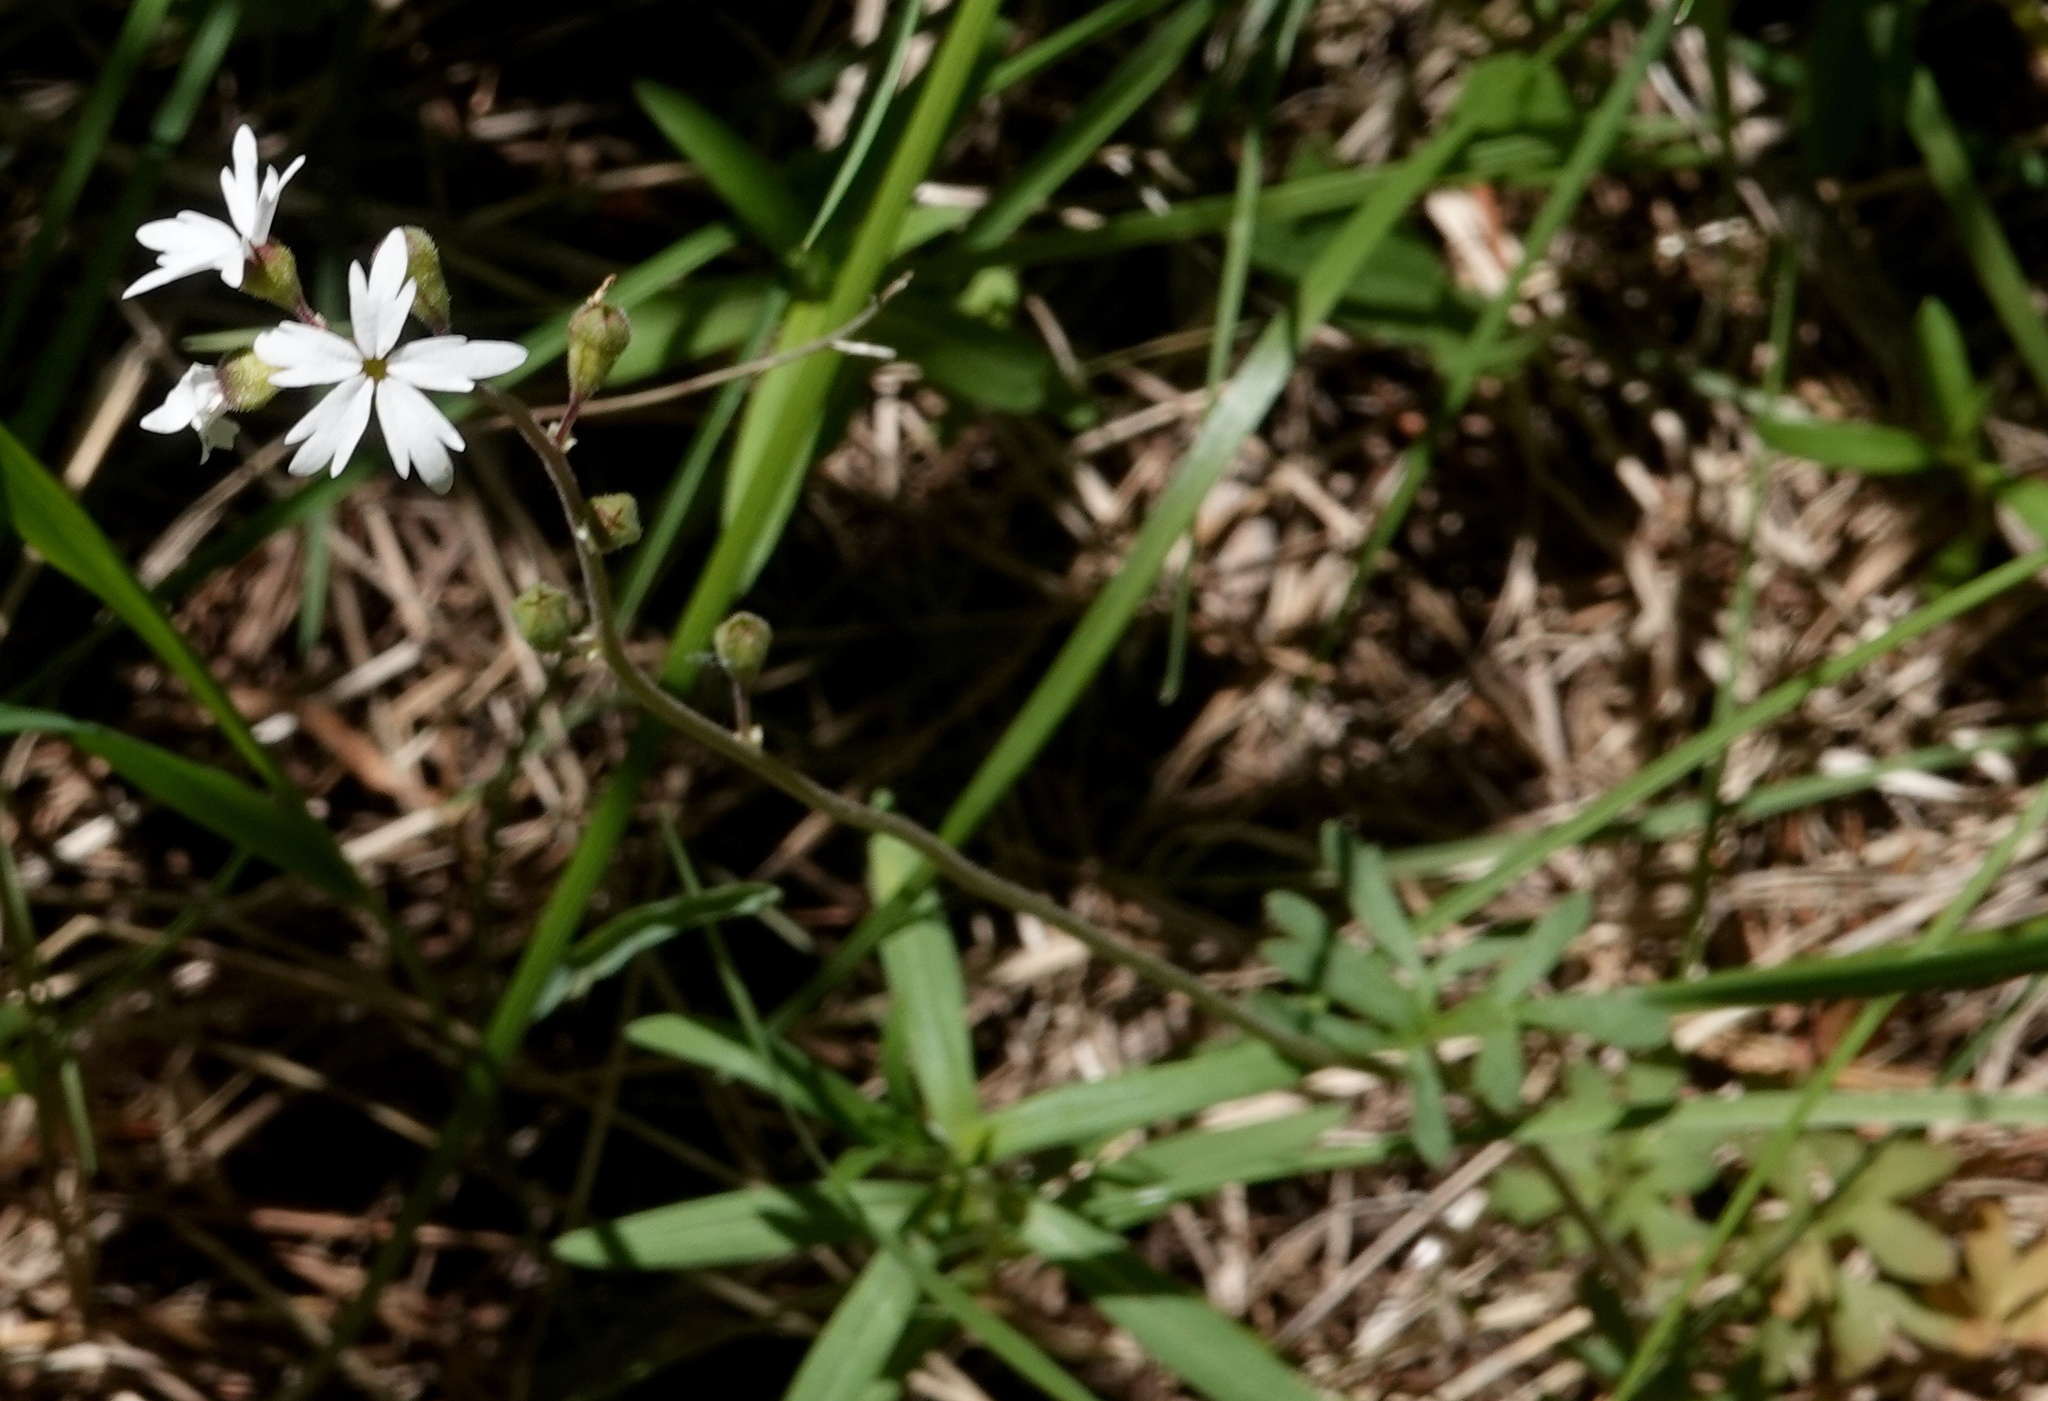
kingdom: Plantae
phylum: Tracheophyta
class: Magnoliopsida
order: Saxifragales
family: Saxifragaceae
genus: Lithophragma
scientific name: Lithophragma parviflorum
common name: Small-flowered fringe-cup
